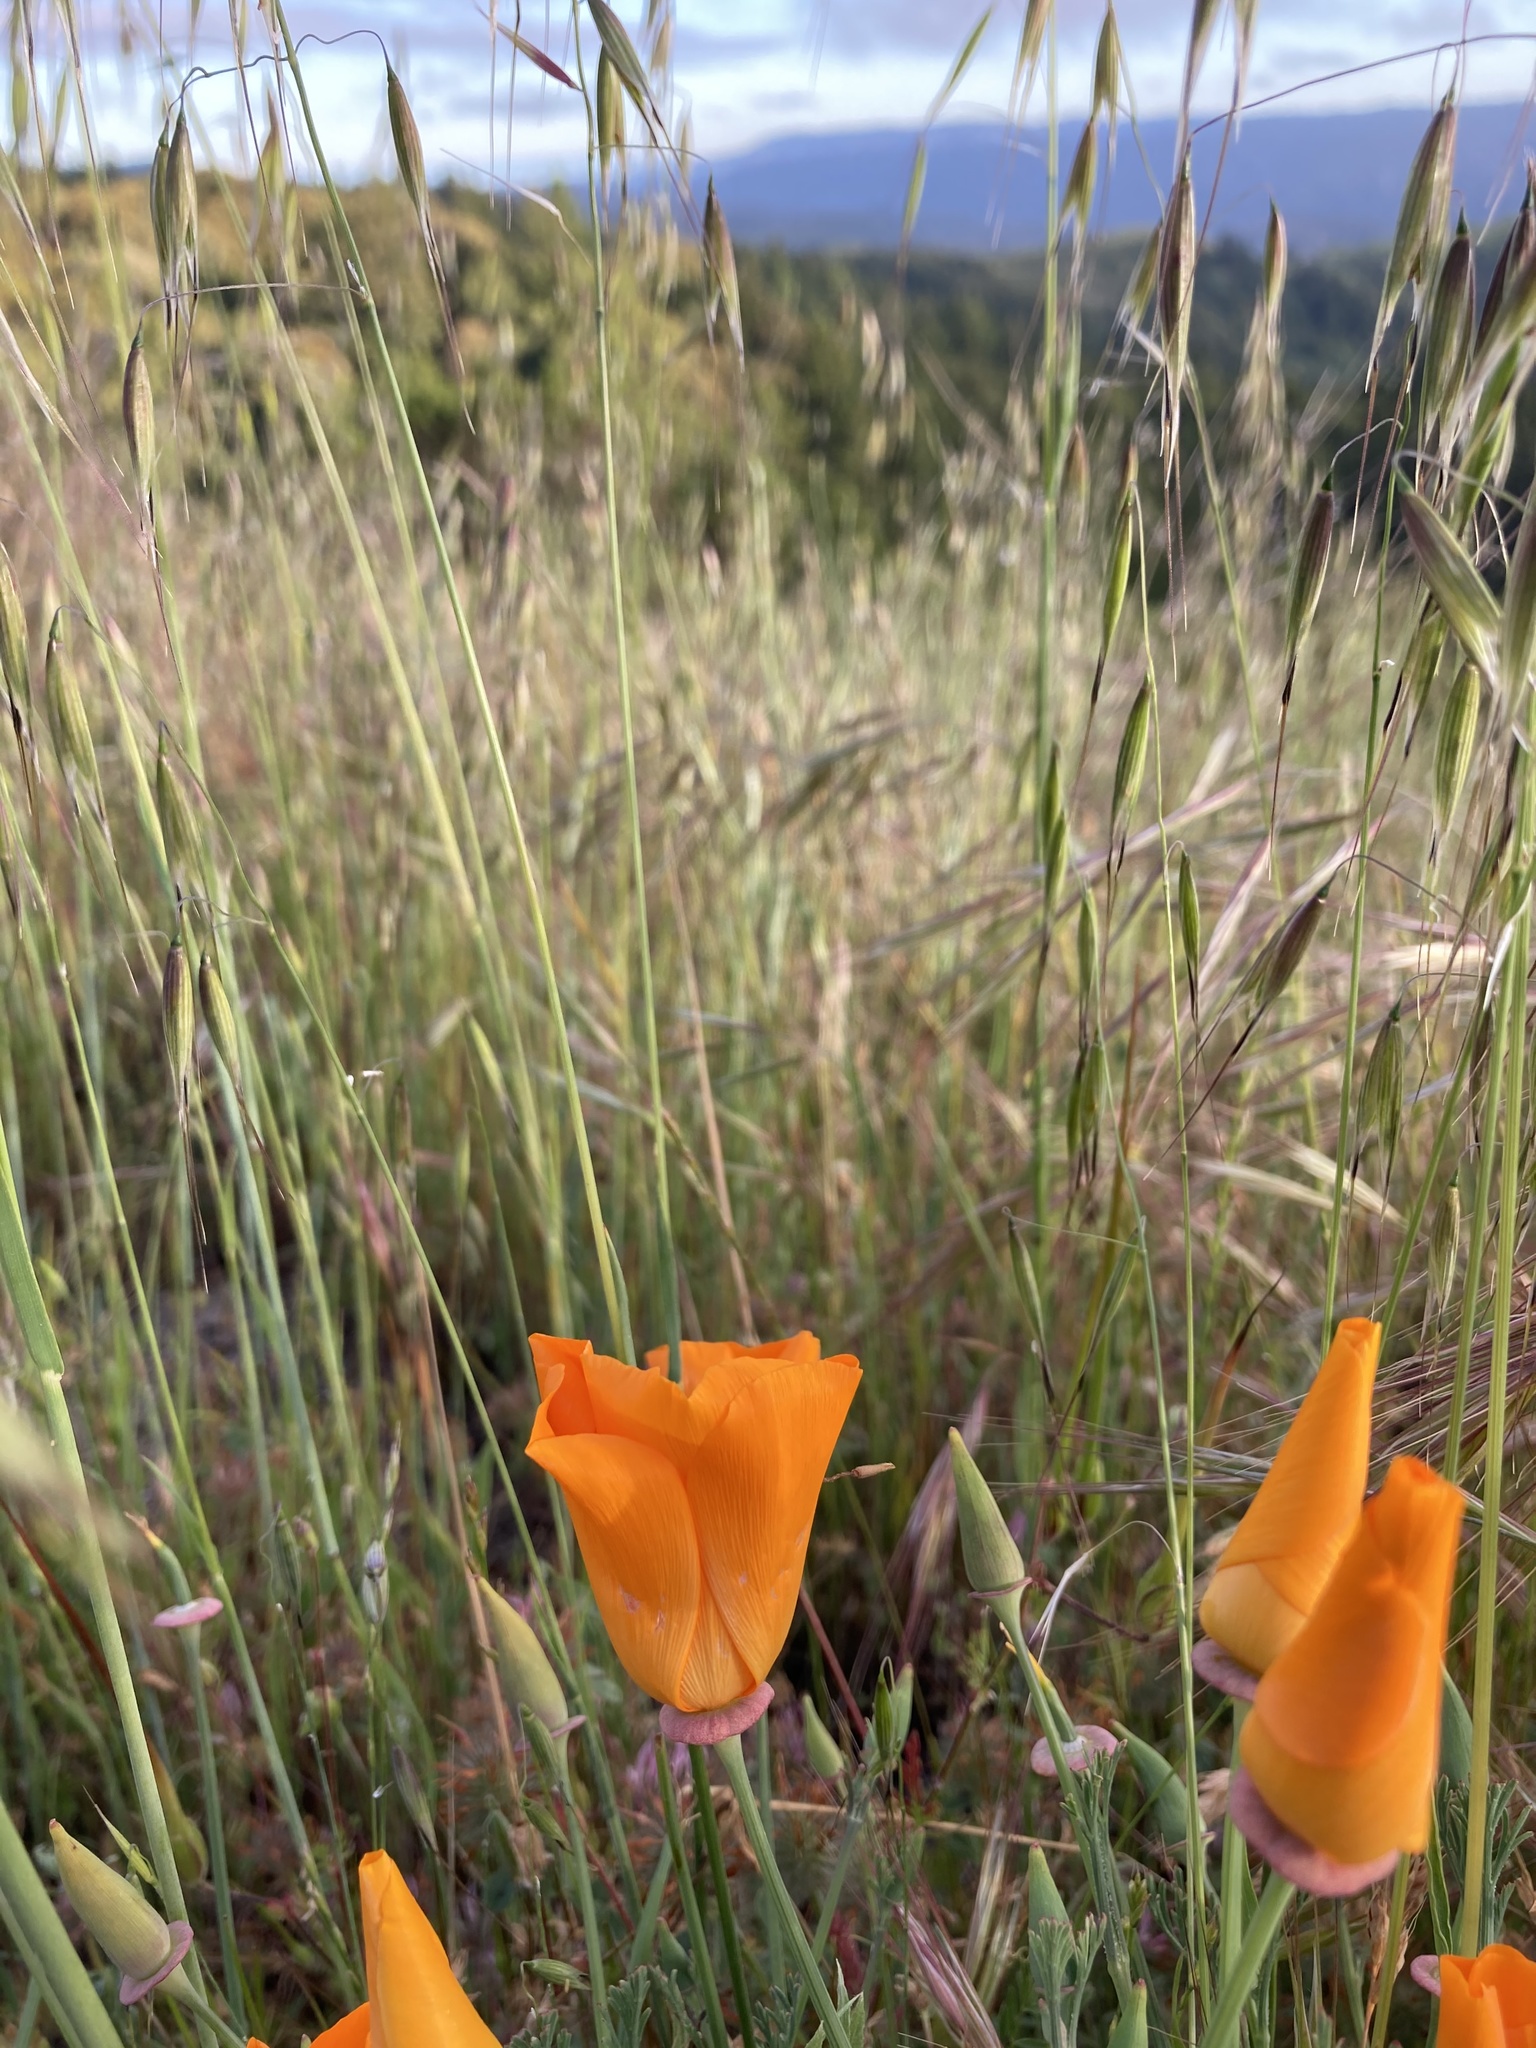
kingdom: Plantae
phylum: Tracheophyta
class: Magnoliopsida
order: Ranunculales
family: Papaveraceae
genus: Eschscholzia
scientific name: Eschscholzia californica
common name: California poppy
